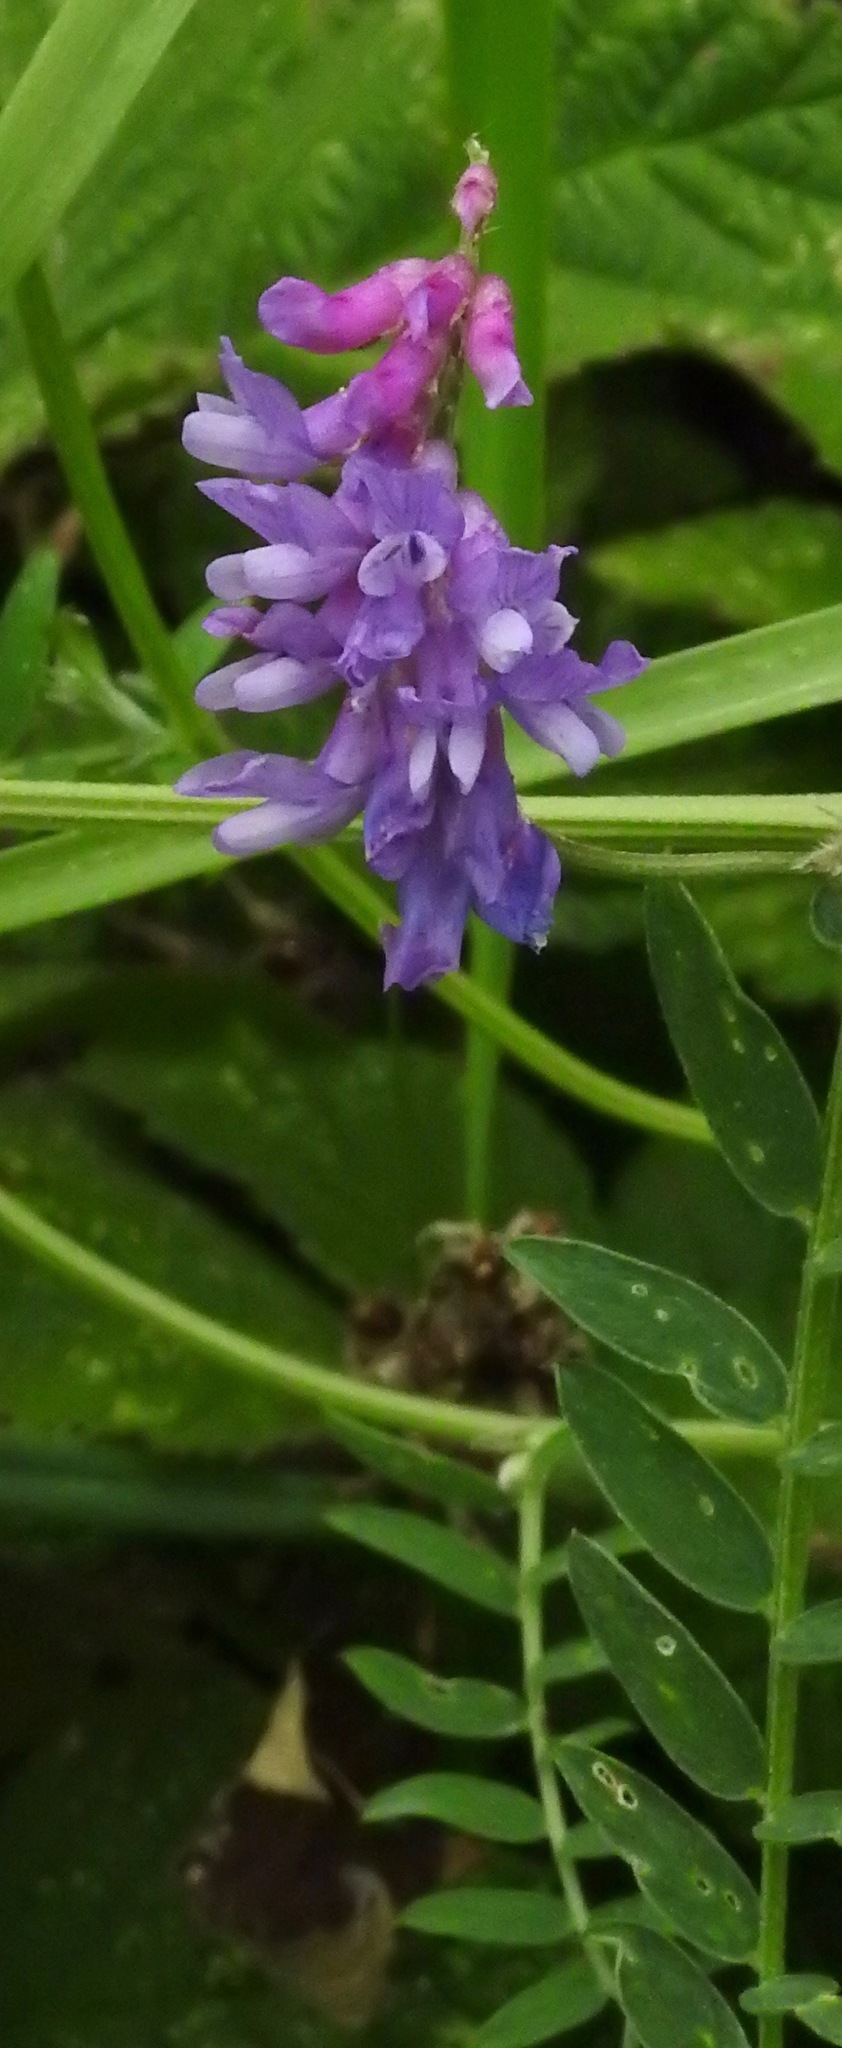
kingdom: Plantae
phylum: Tracheophyta
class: Magnoliopsida
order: Fabales
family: Fabaceae
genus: Vicia
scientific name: Vicia cracca
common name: Bird vetch
